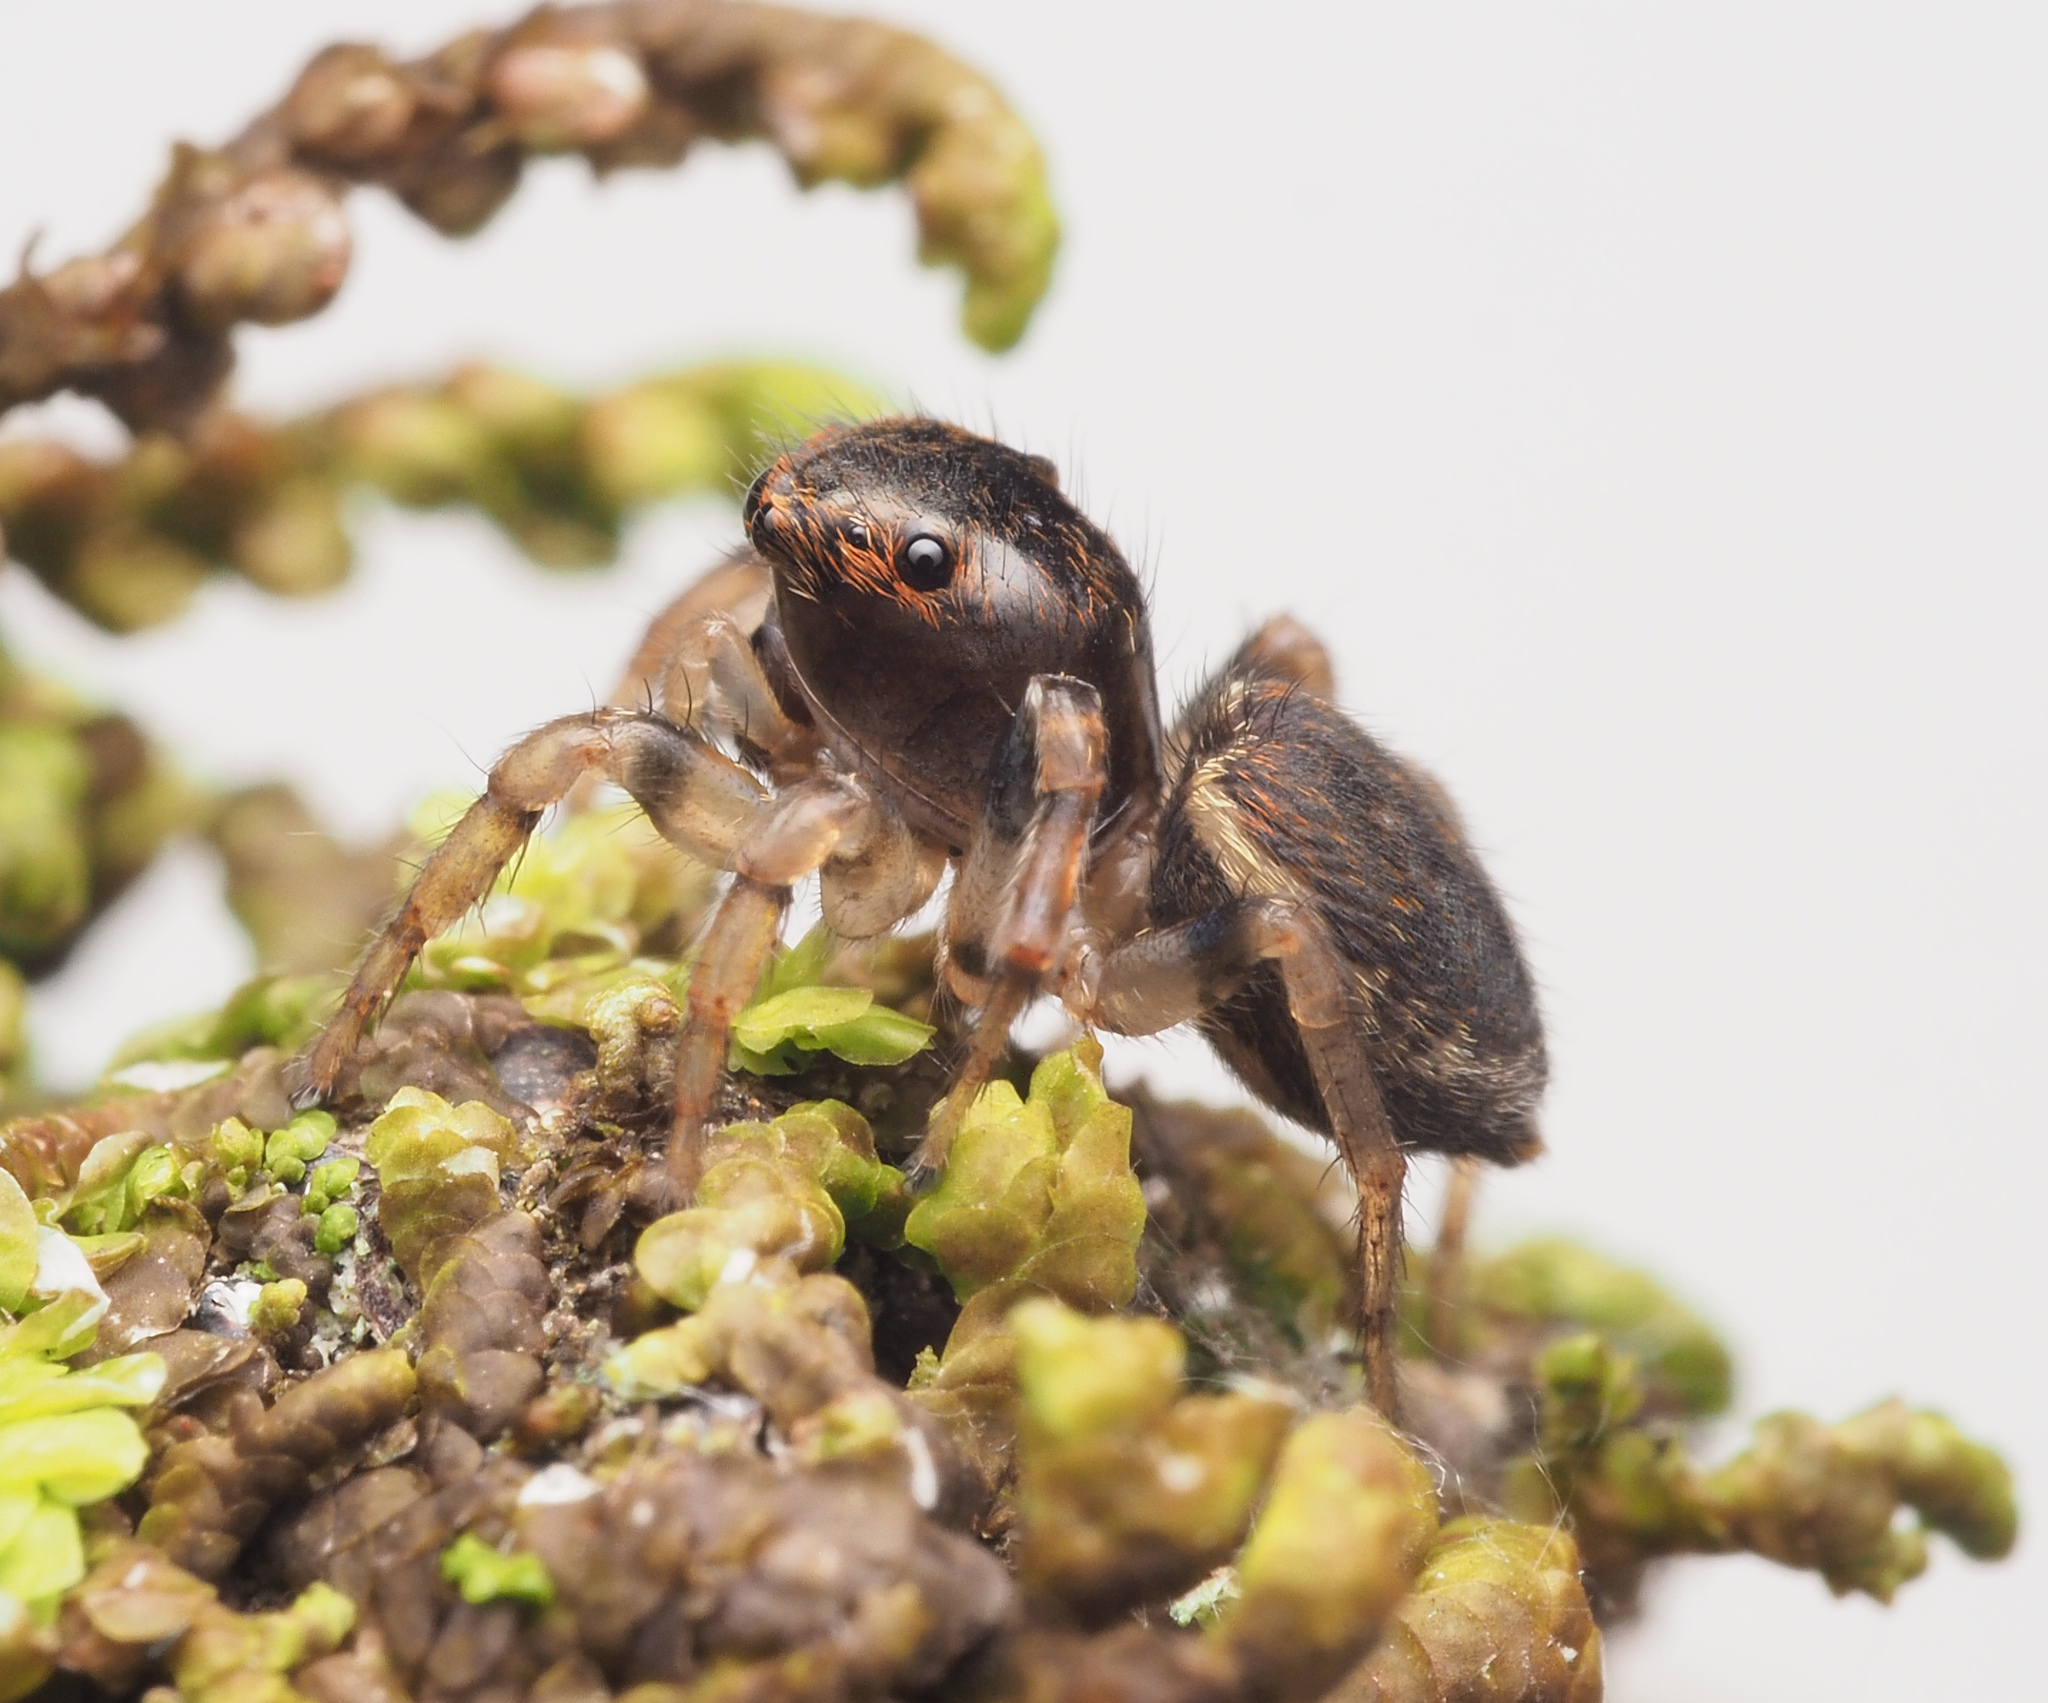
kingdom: Animalia
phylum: Arthropoda
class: Arachnida
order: Araneae
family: Salticidae
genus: Maratus
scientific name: Maratus
